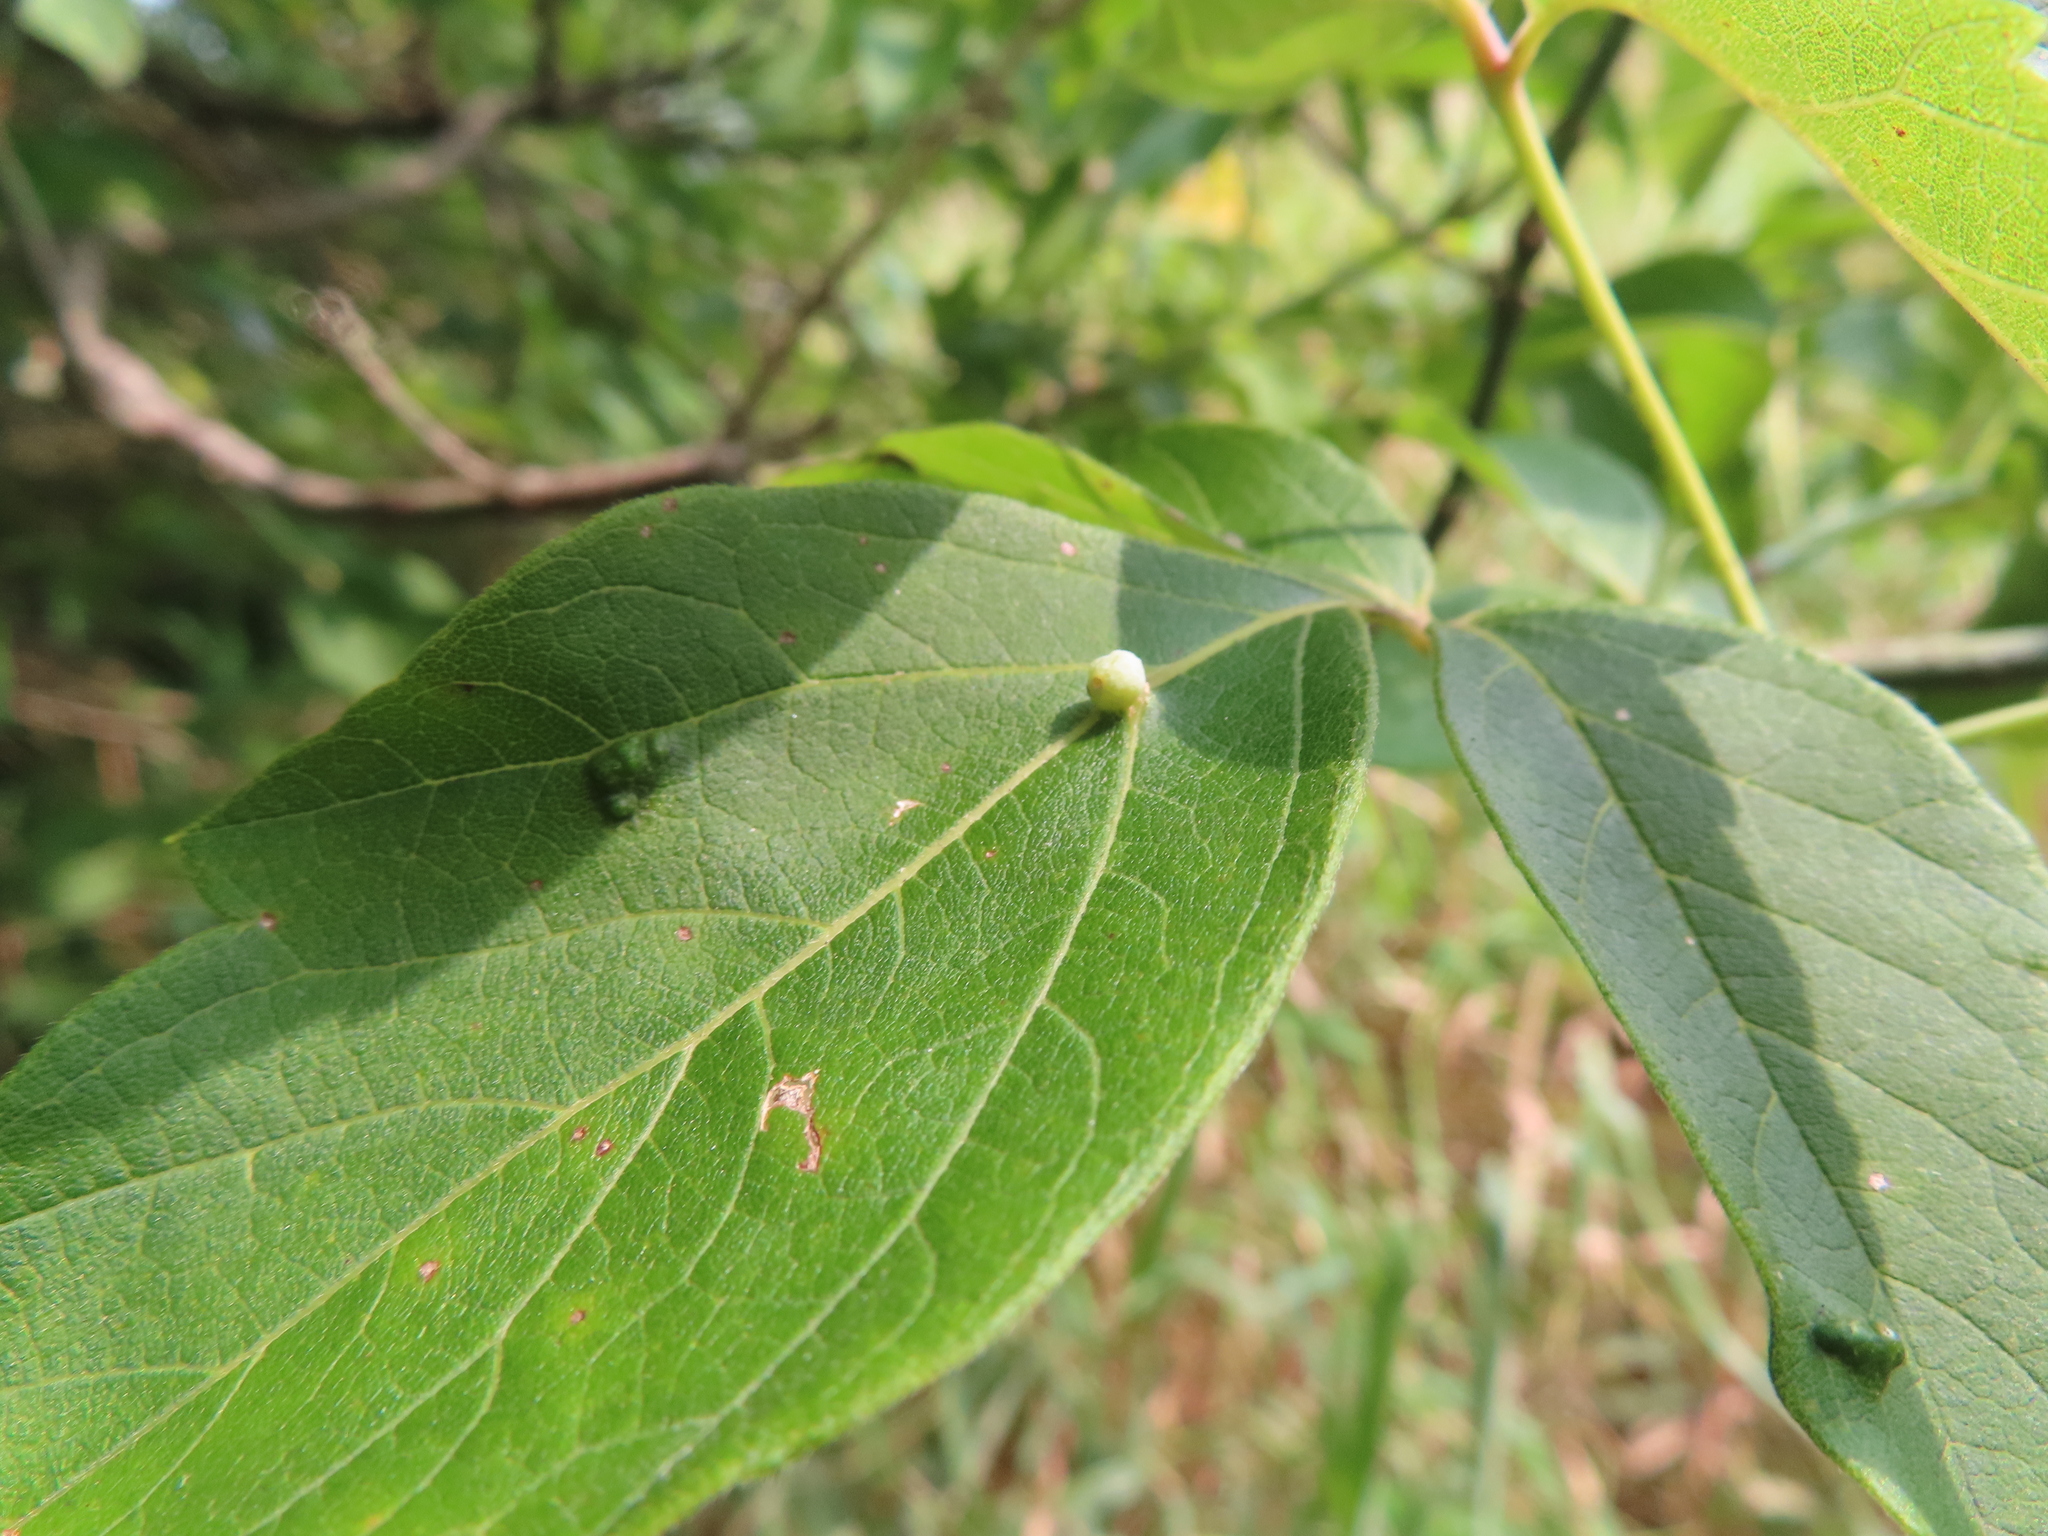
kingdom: Animalia
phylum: Arthropoda
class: Arachnida
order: Trombidiformes
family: Eriophyidae
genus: Aceria
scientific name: Aceria
